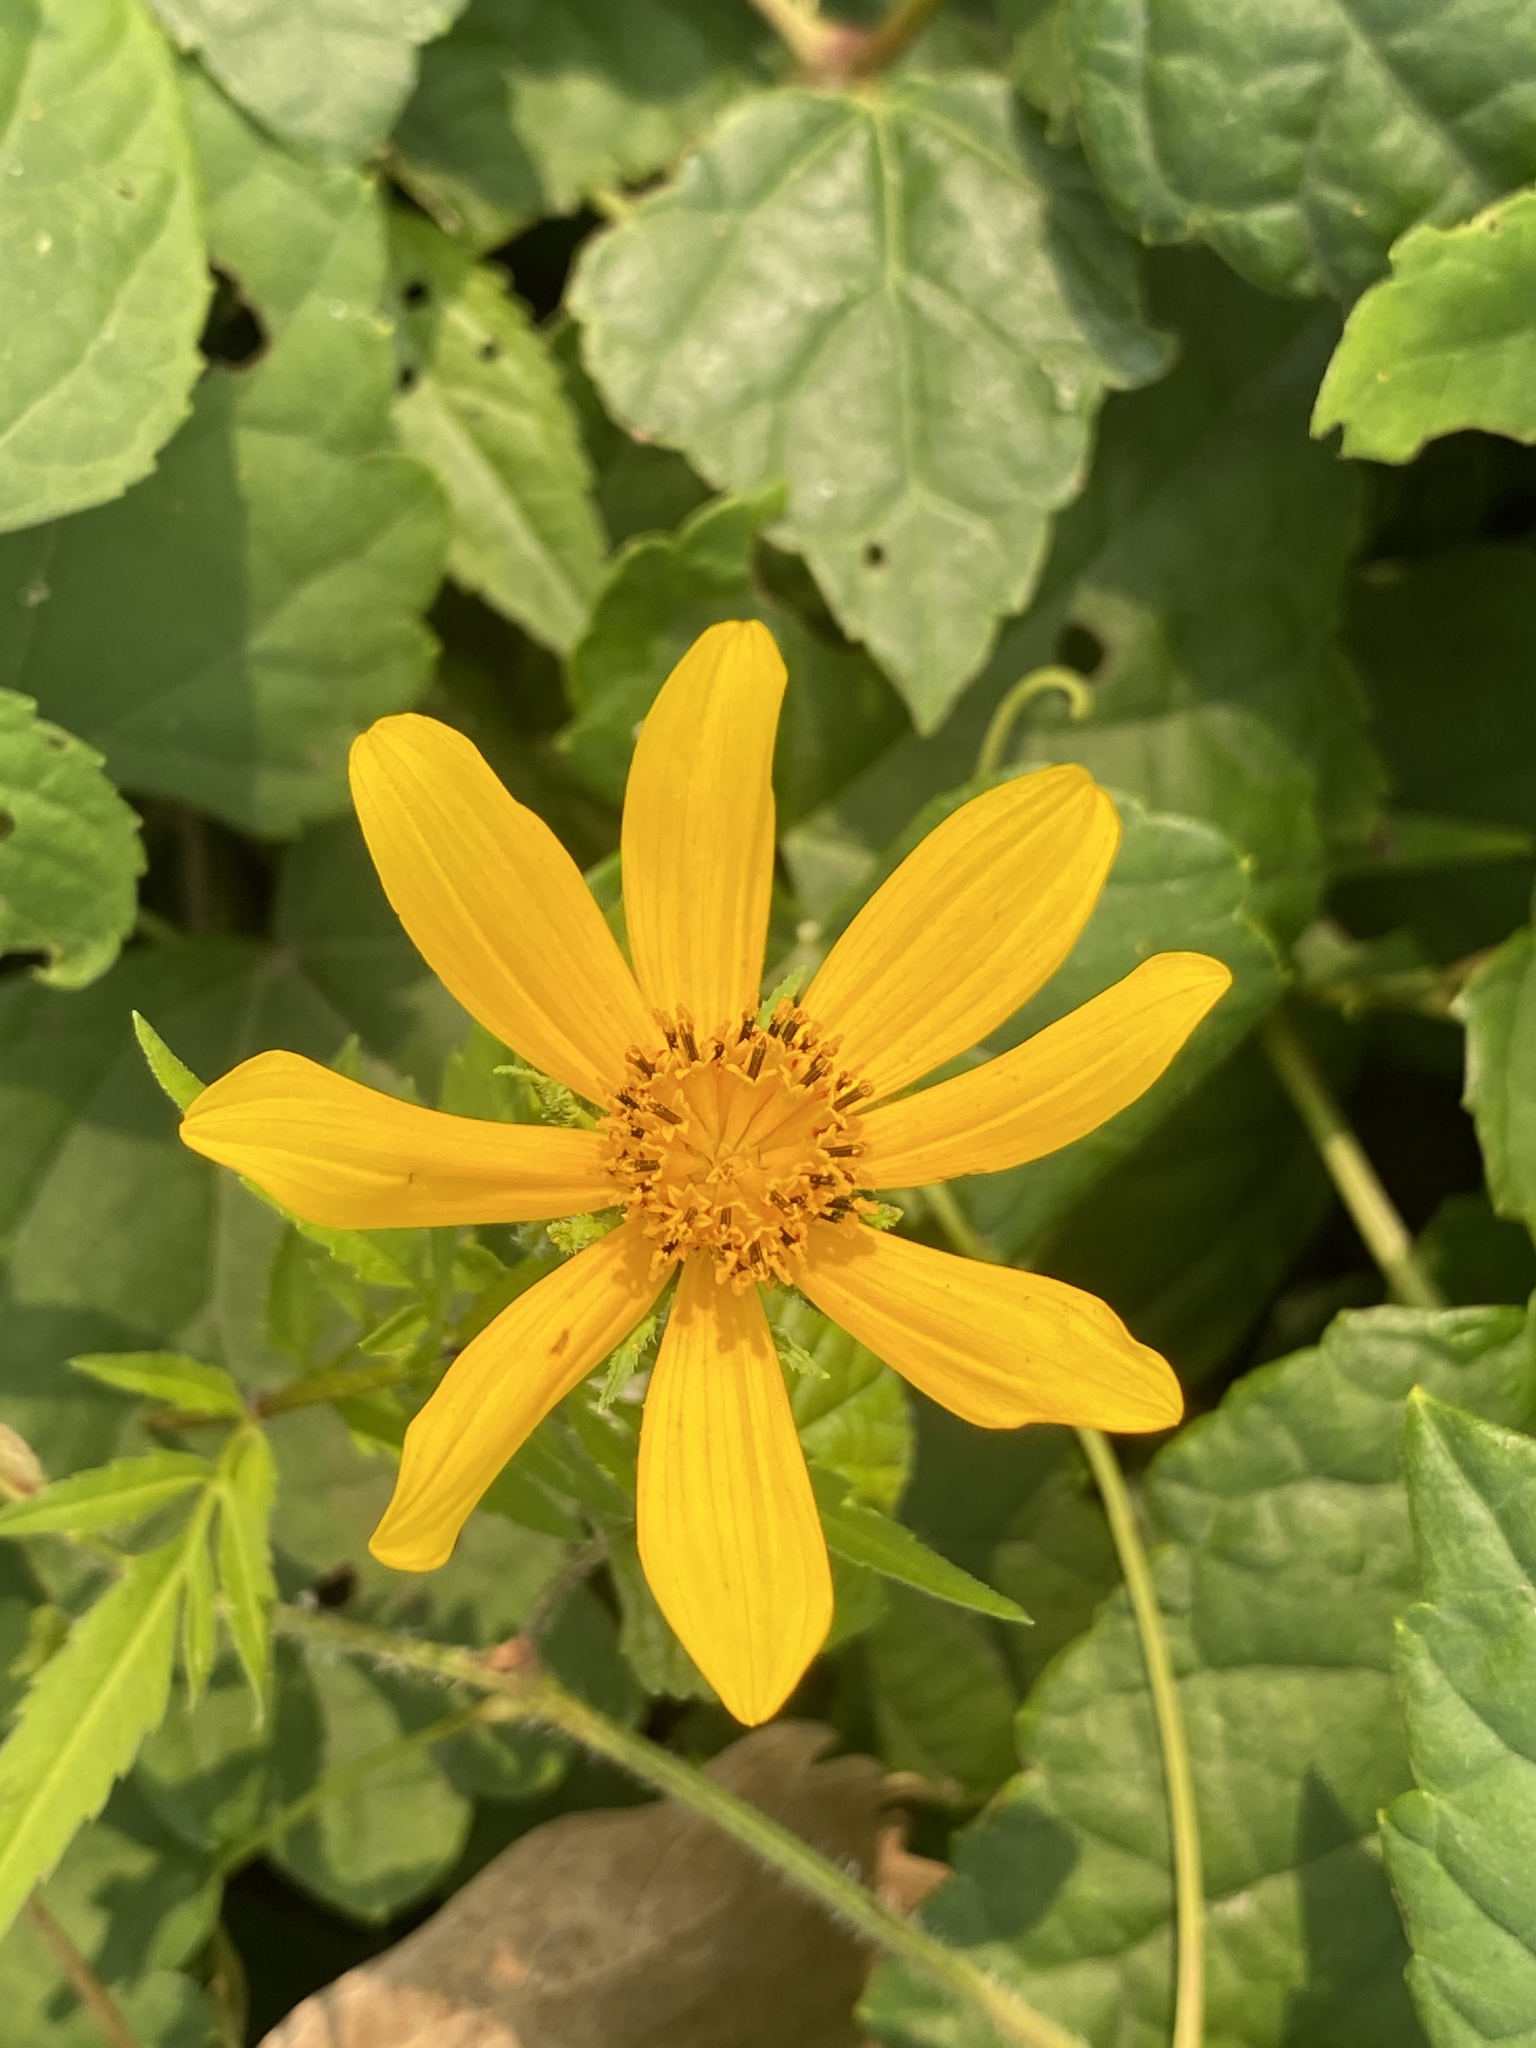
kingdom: Plantae
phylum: Tracheophyta
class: Magnoliopsida
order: Asterales
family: Asteraceae
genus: Bidens
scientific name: Bidens polylepis
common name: Awnless beggarticks
